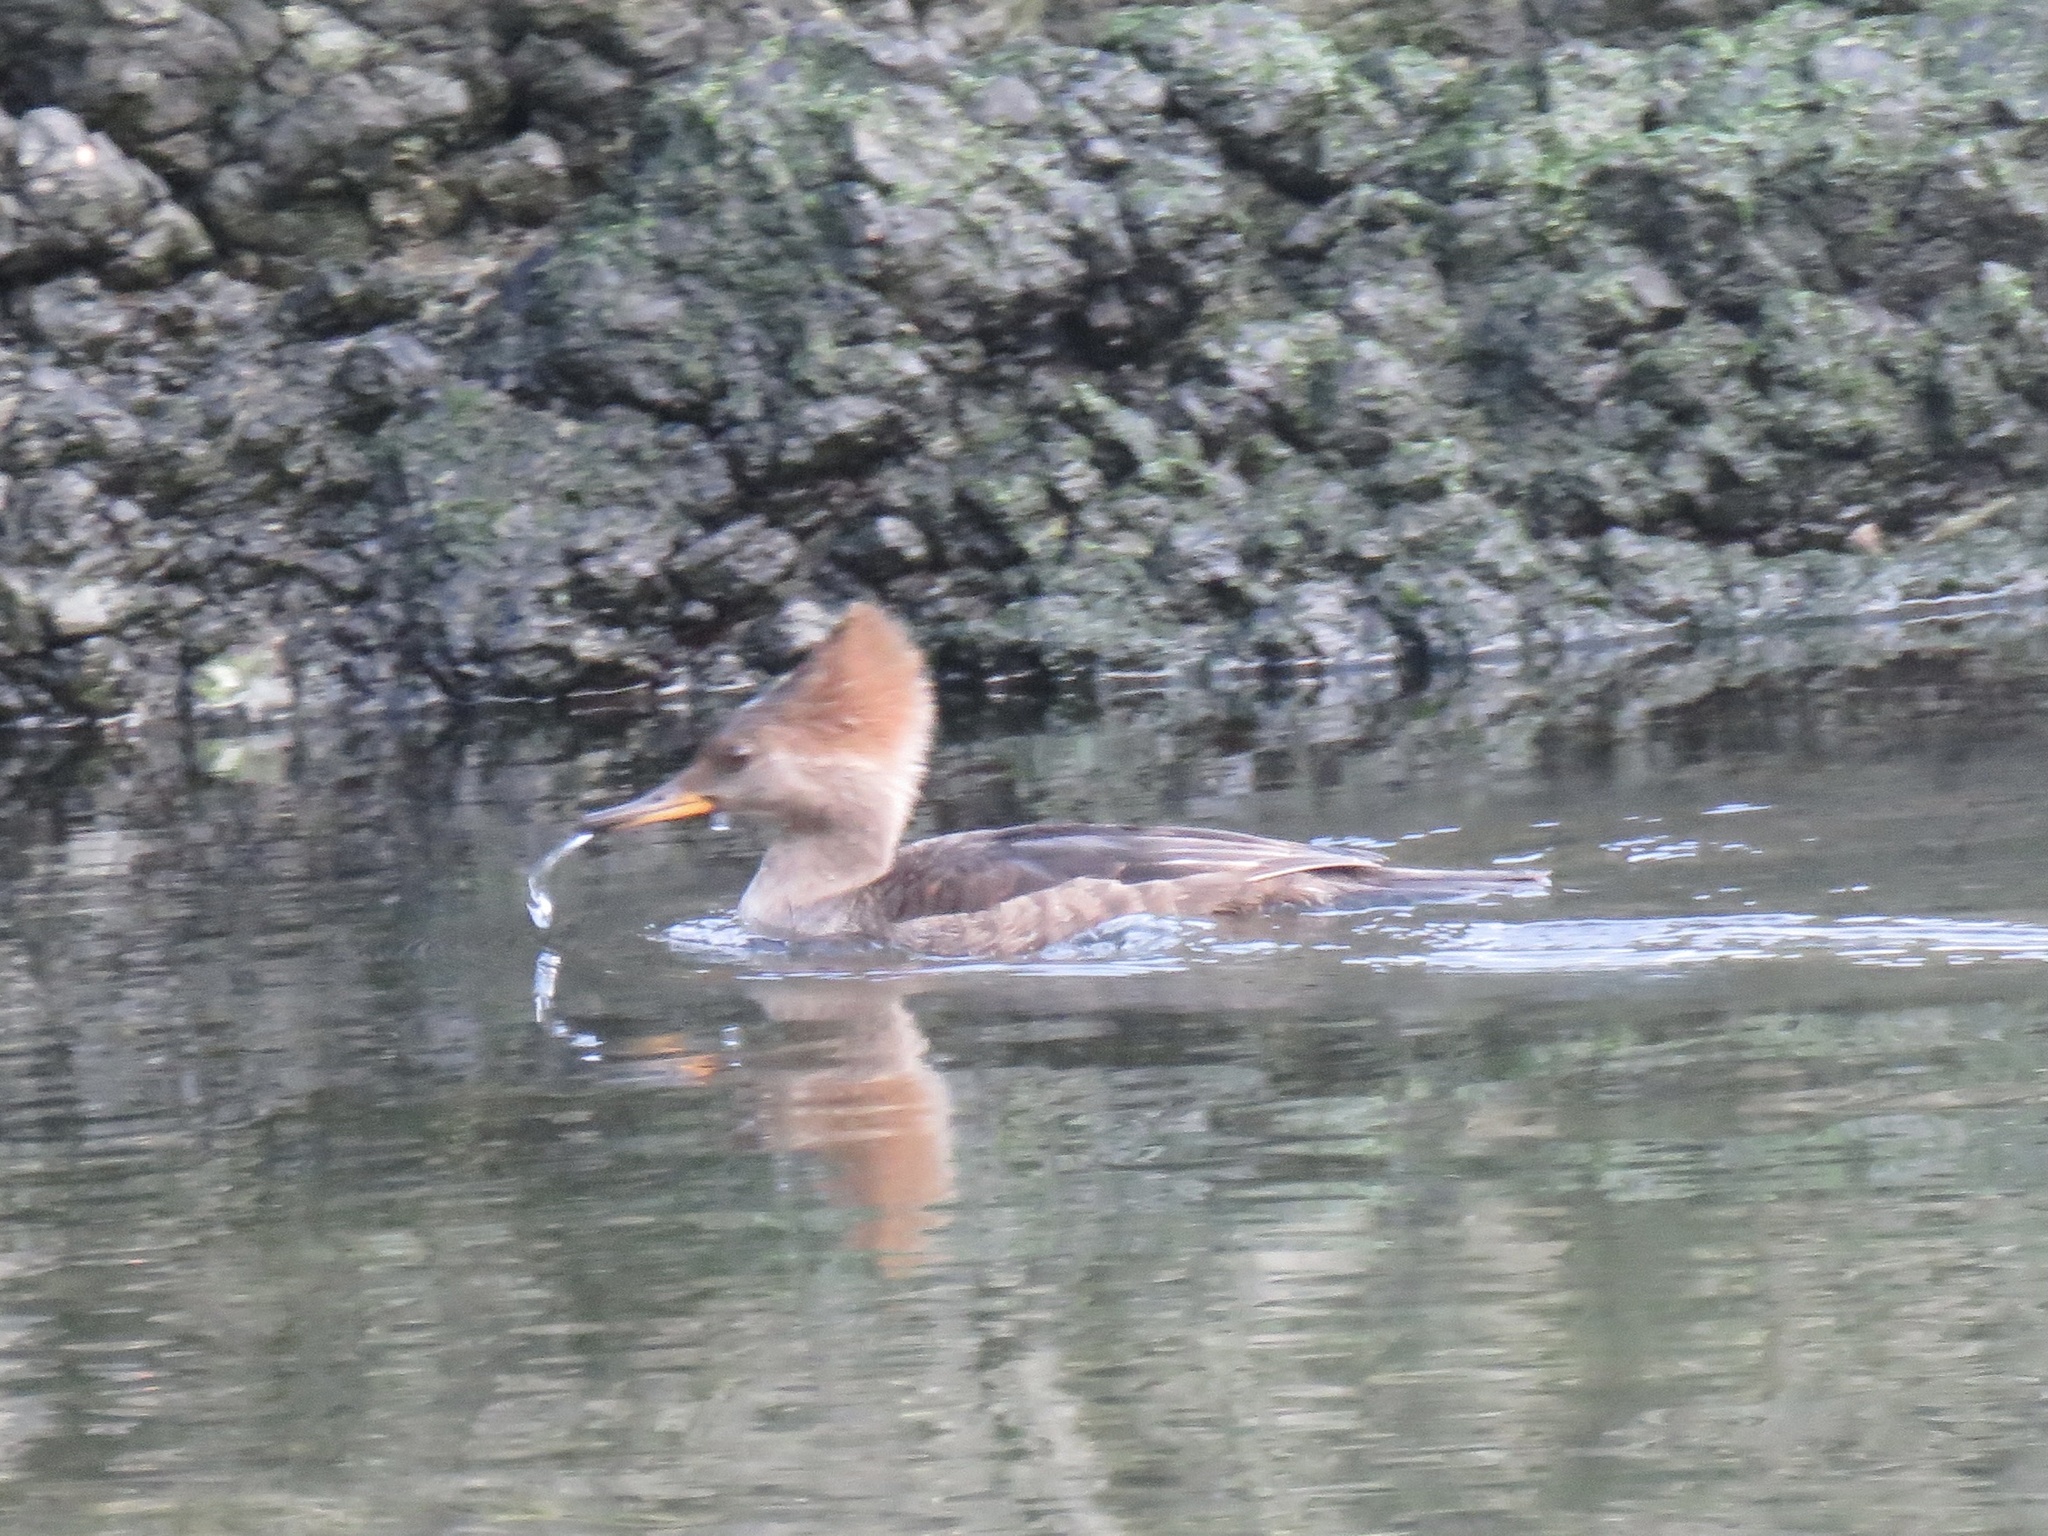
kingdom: Animalia
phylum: Chordata
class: Aves
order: Anseriformes
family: Anatidae
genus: Lophodytes
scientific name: Lophodytes cucullatus
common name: Hooded merganser
